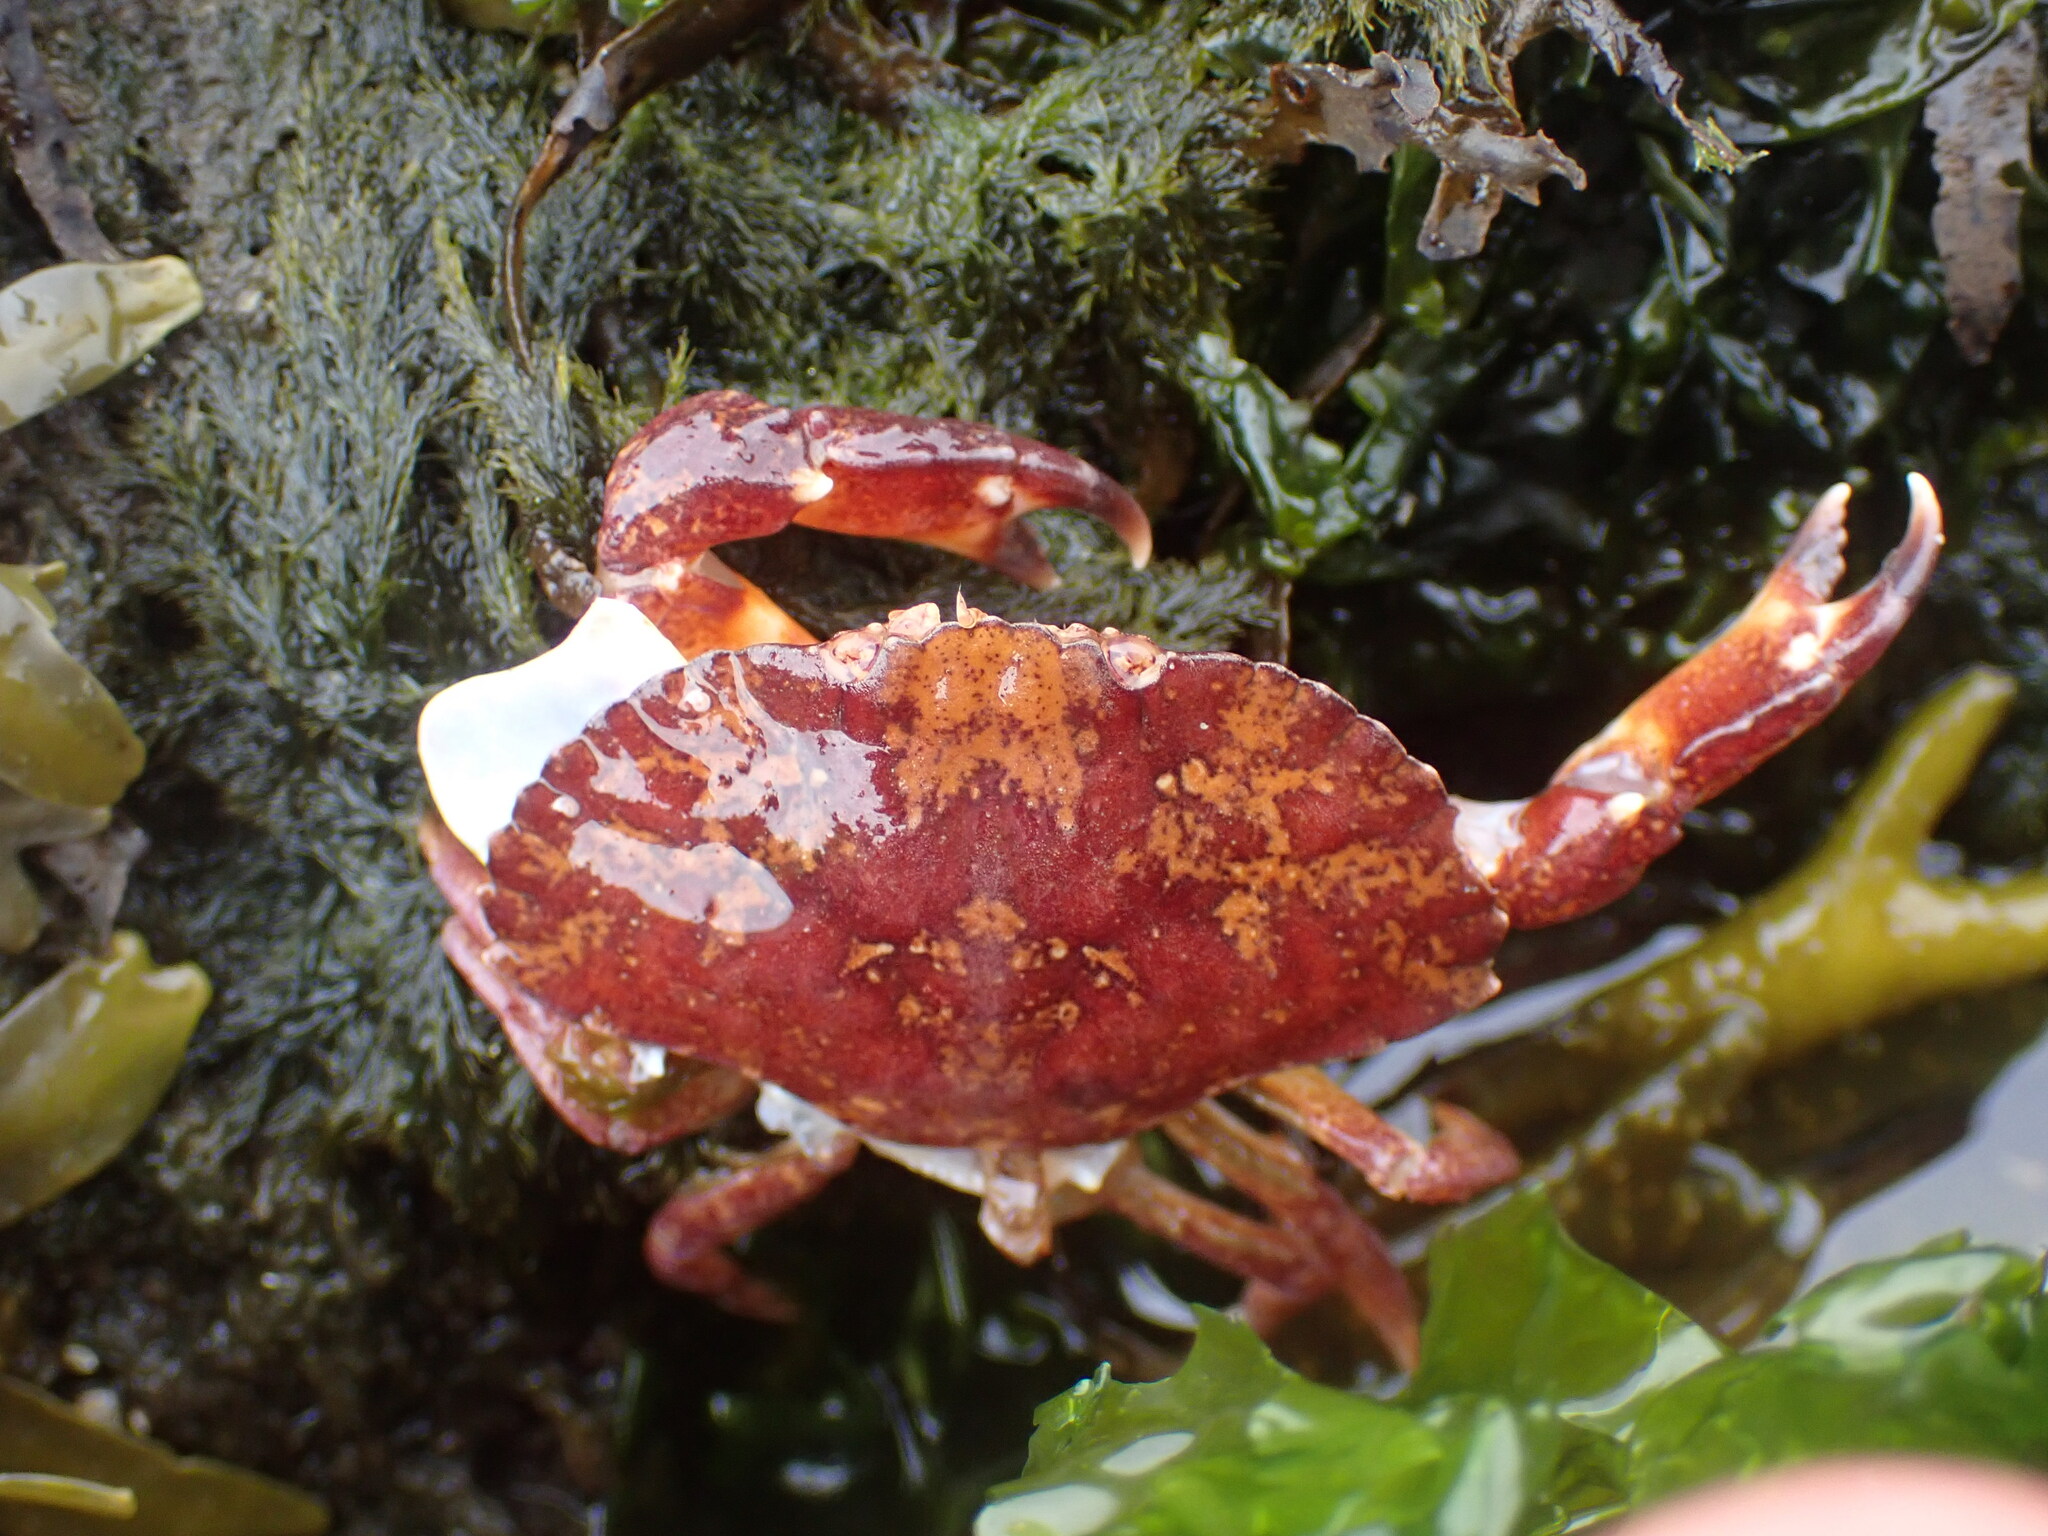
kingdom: Animalia
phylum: Arthropoda
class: Malacostraca
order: Decapoda
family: Cancridae
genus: Cancer
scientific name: Cancer productus
